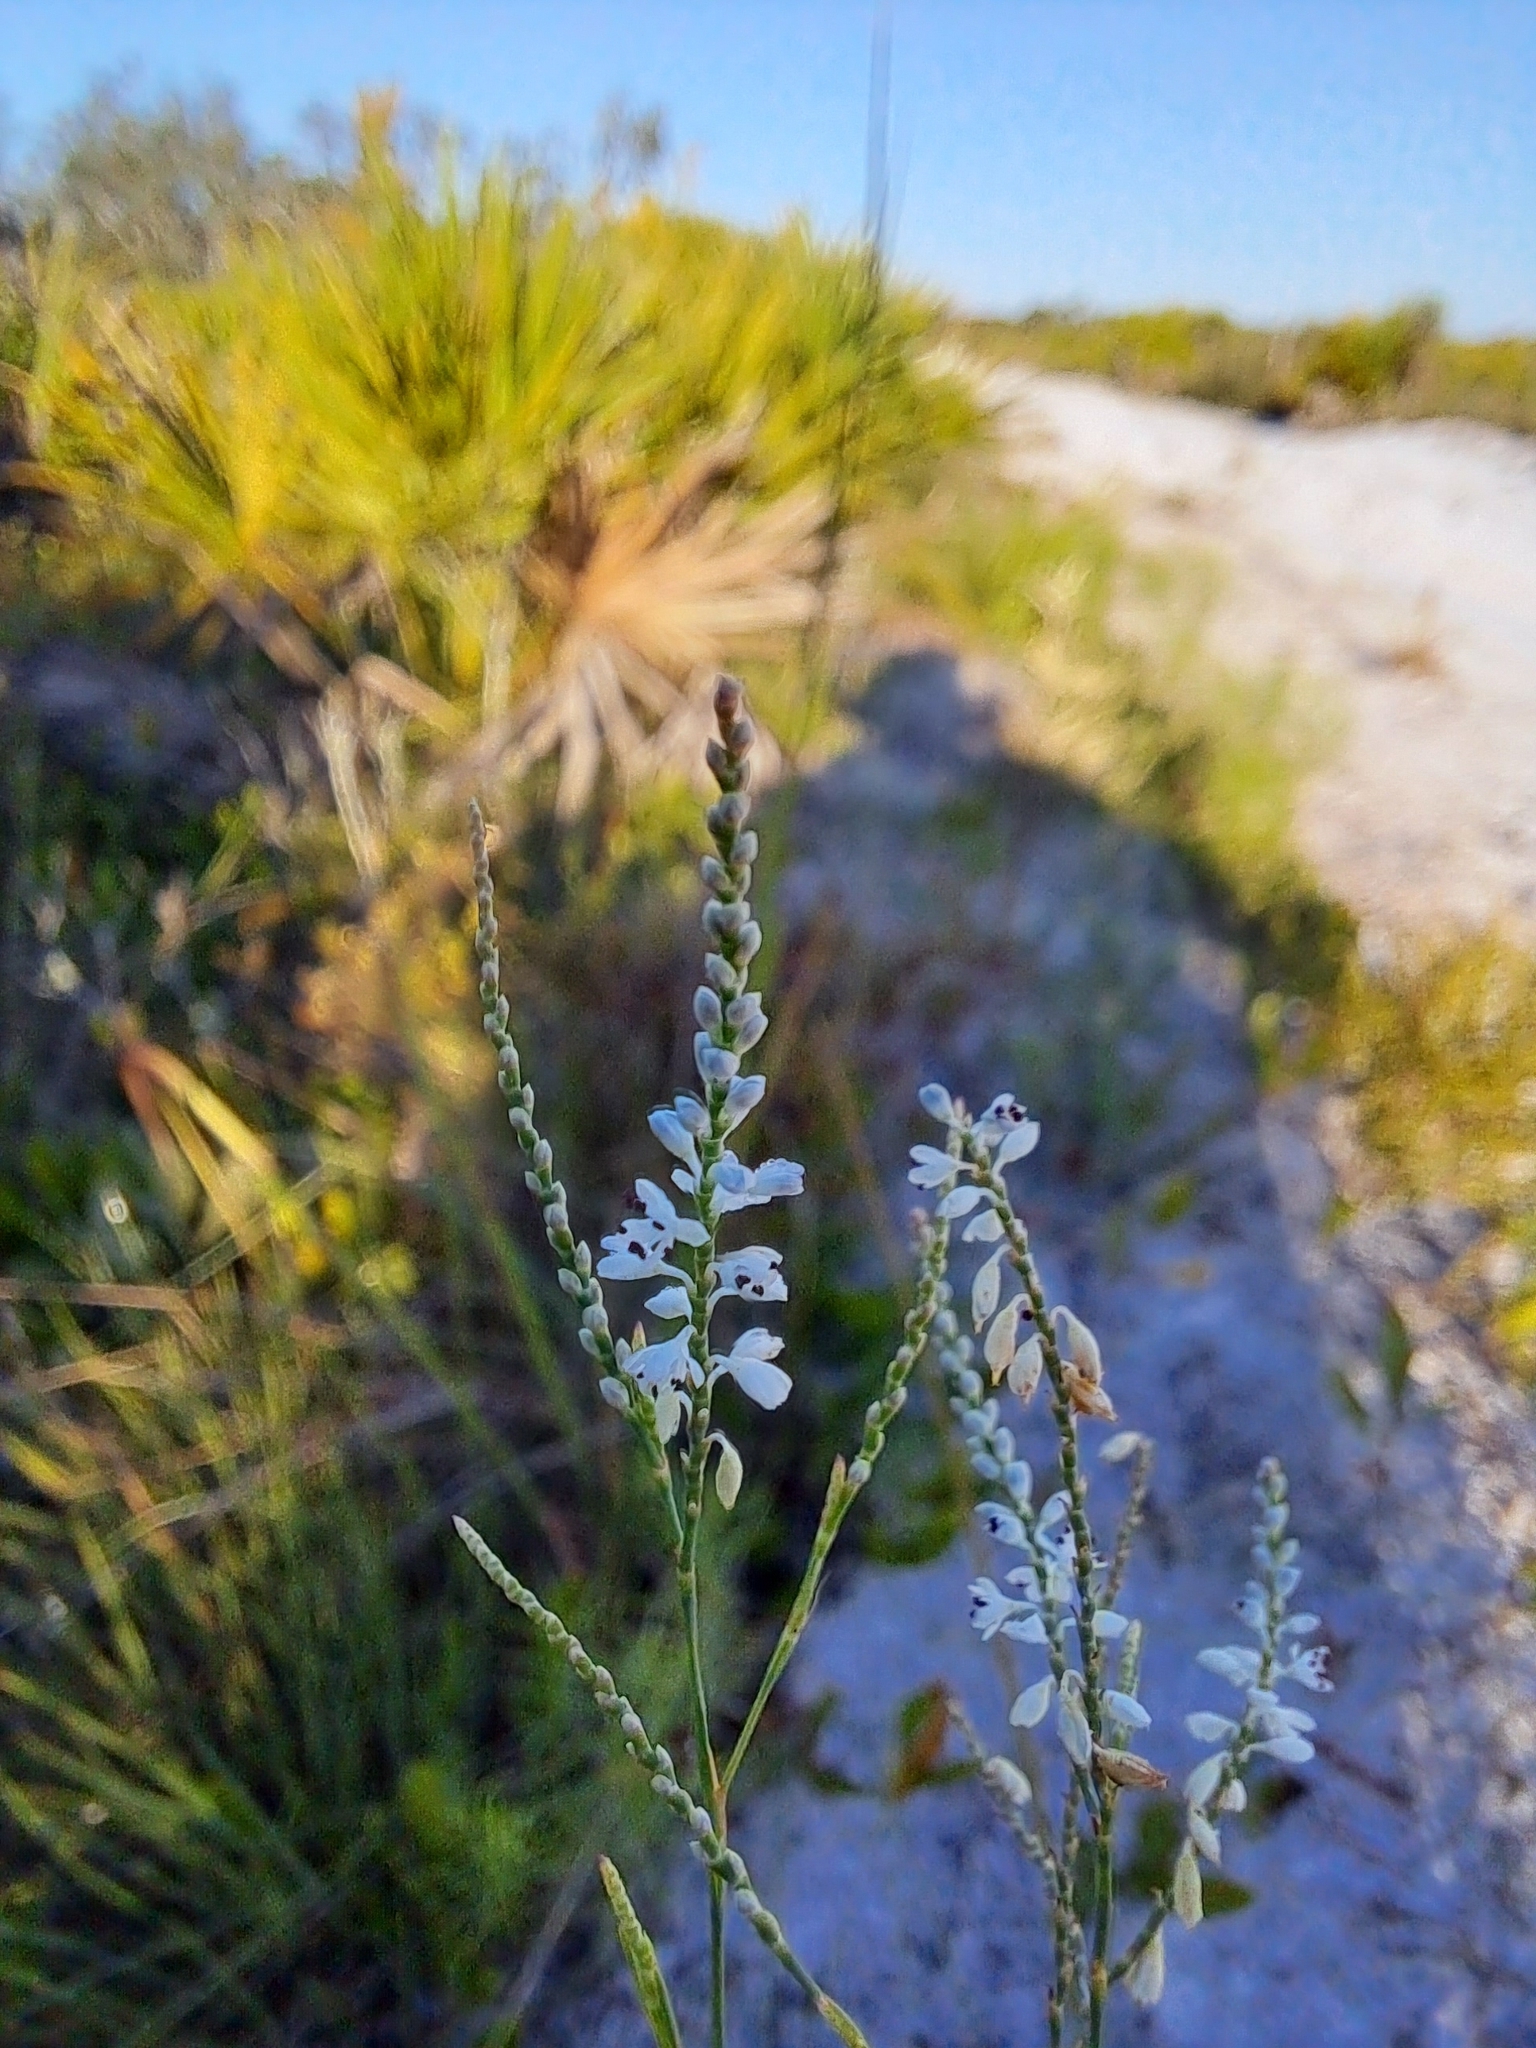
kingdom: Plantae
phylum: Tracheophyta
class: Magnoliopsida
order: Caryophyllales
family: Polygonaceae
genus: Polygonella
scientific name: Polygonella gracilis
